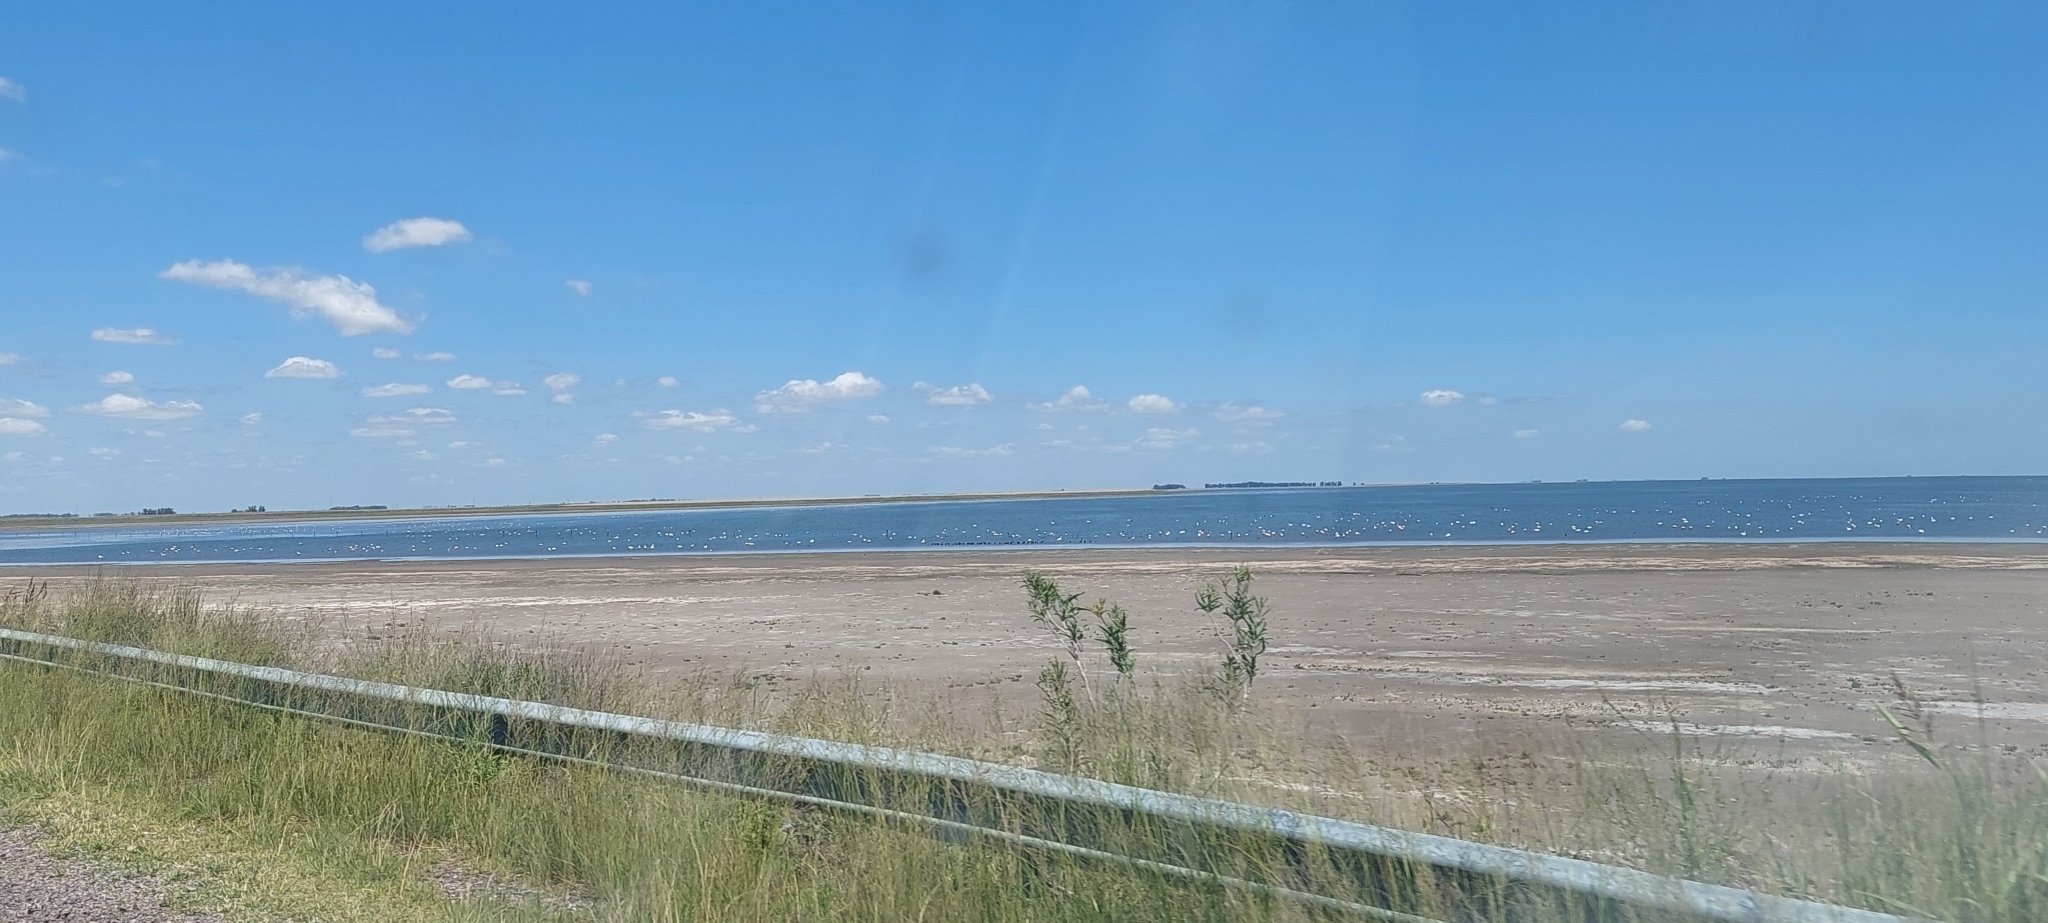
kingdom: Animalia
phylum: Chordata
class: Aves
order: Anseriformes
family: Anatidae
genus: Coscoroba
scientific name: Coscoroba coscoroba
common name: Coscoroba swan
